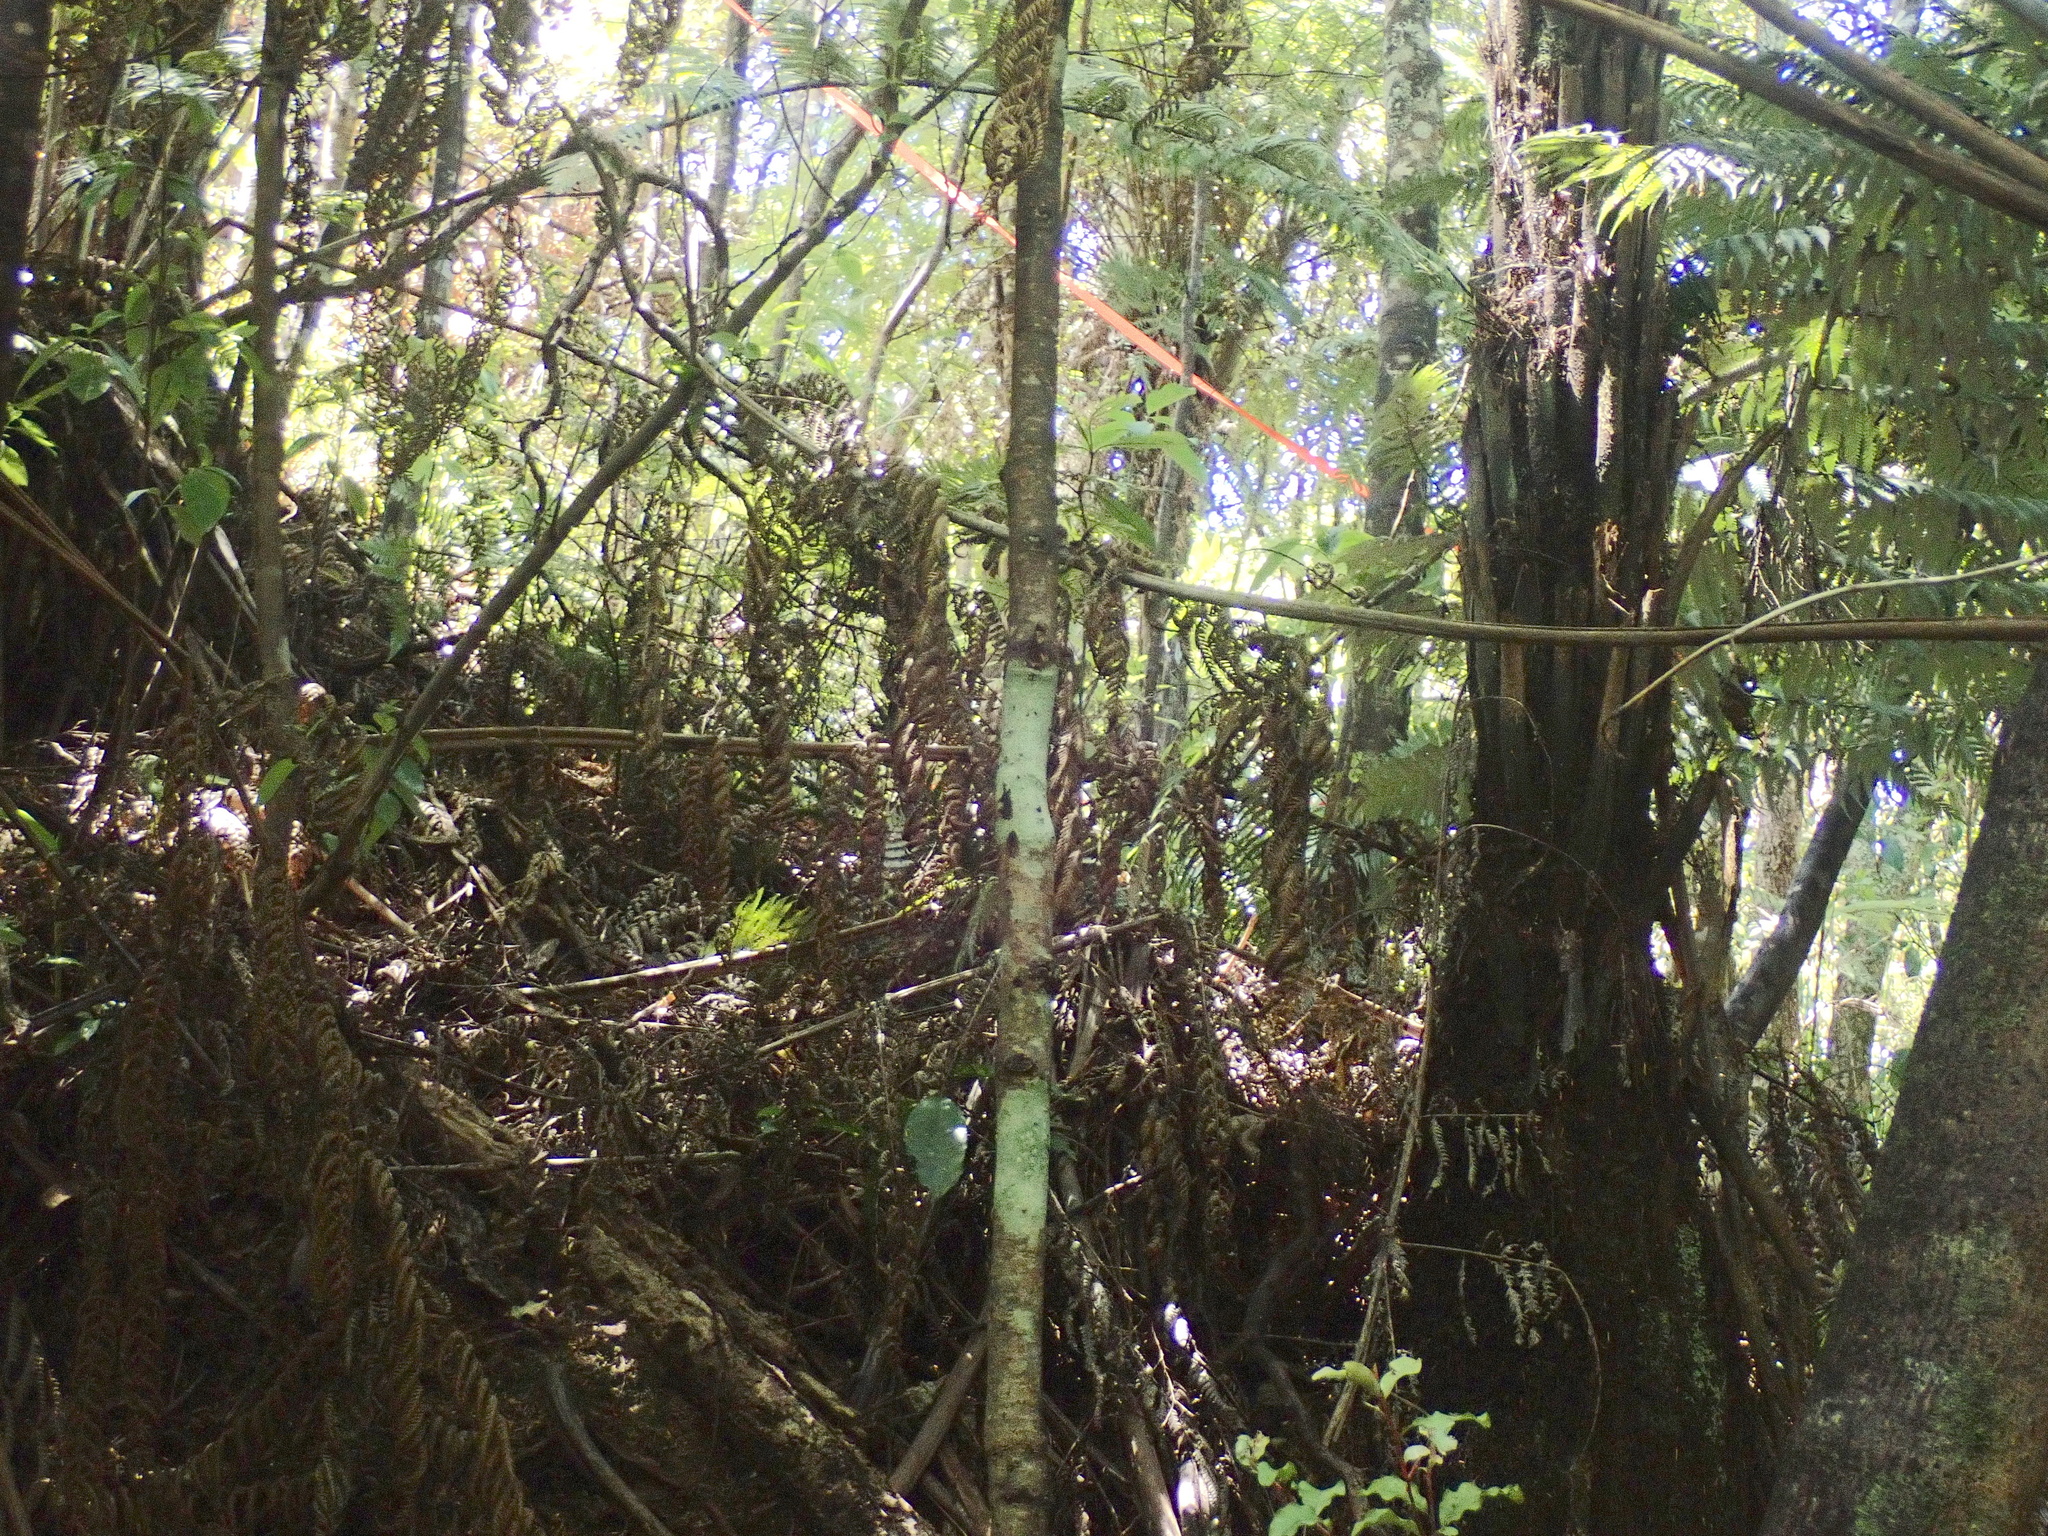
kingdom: Plantae
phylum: Tracheophyta
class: Polypodiopsida
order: Cyatheales
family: Cyatheaceae
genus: Alsophila
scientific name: Alsophila dealbata
